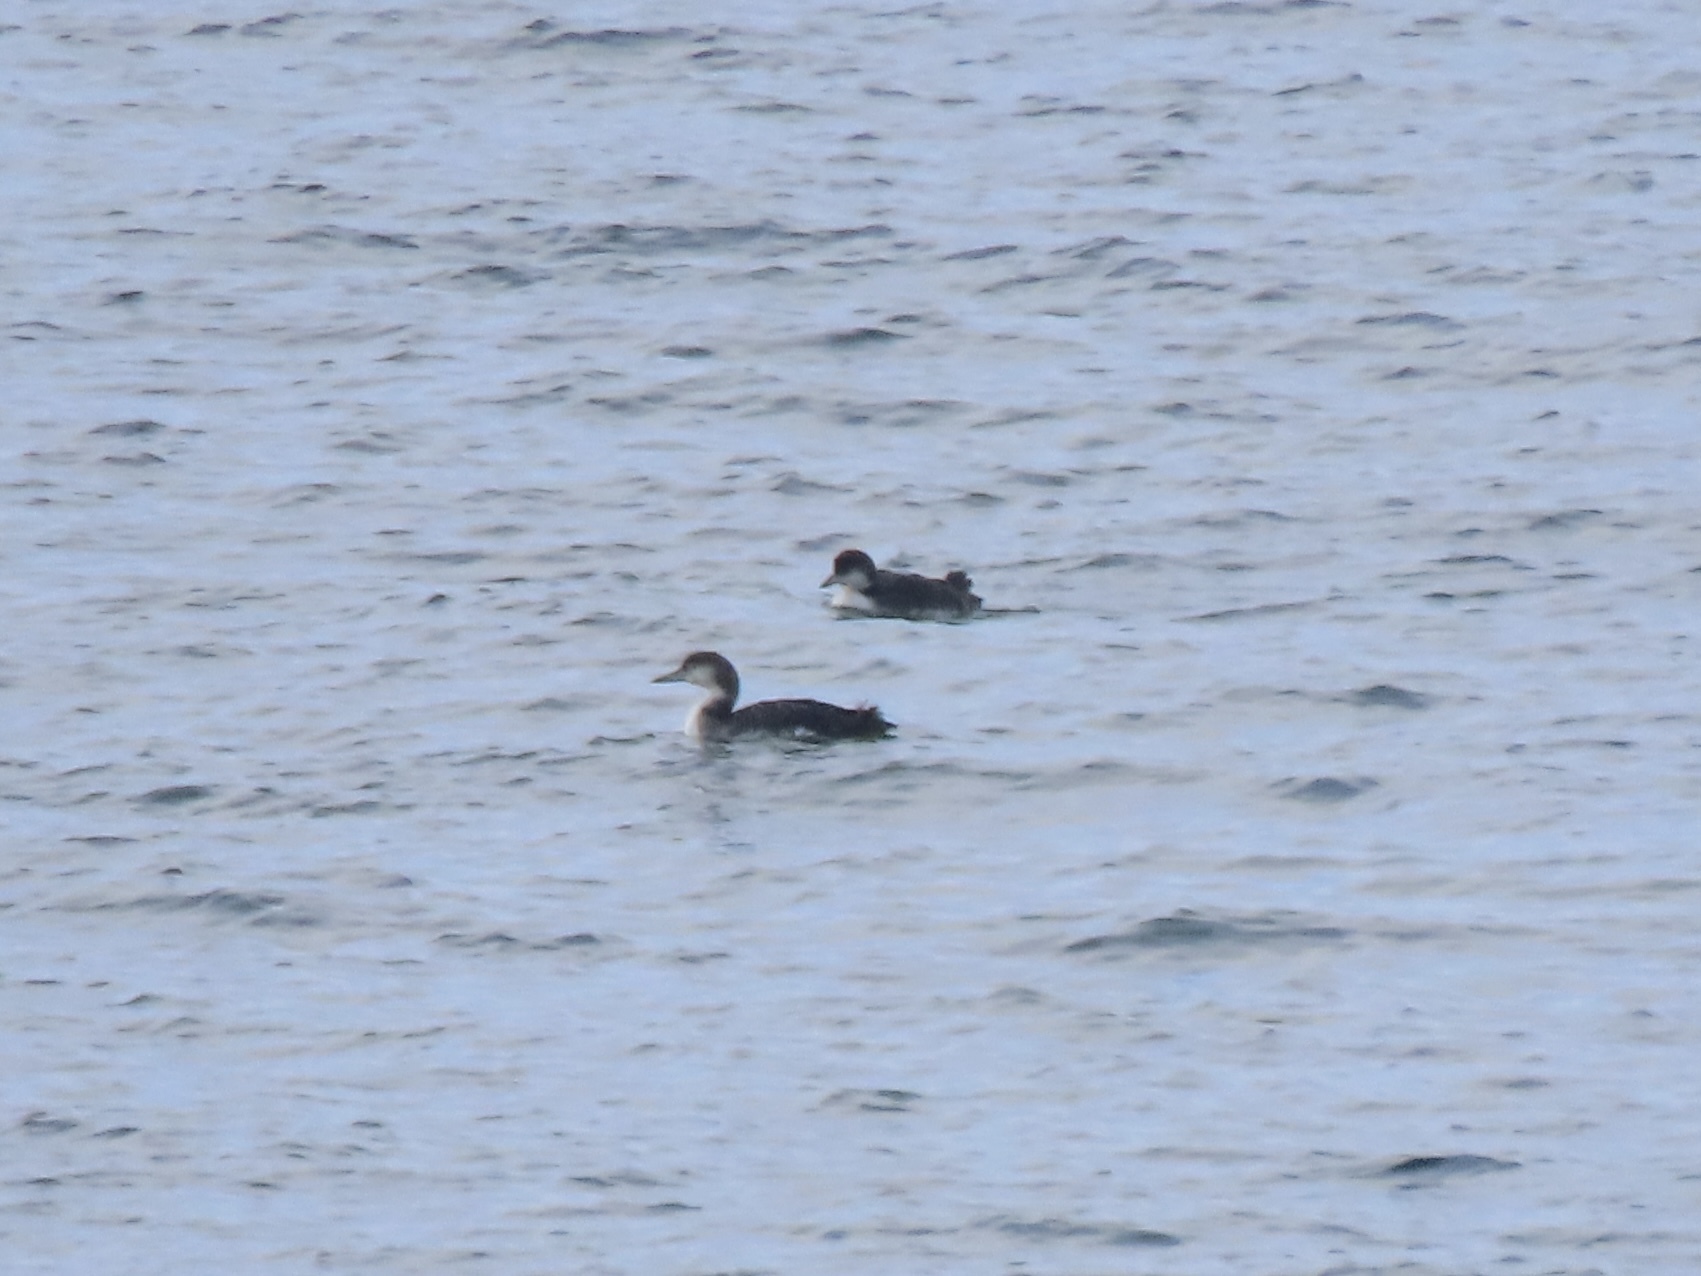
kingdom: Animalia
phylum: Chordata
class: Aves
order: Gaviiformes
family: Gaviidae
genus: Gavia
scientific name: Gavia immer
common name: Common loon
